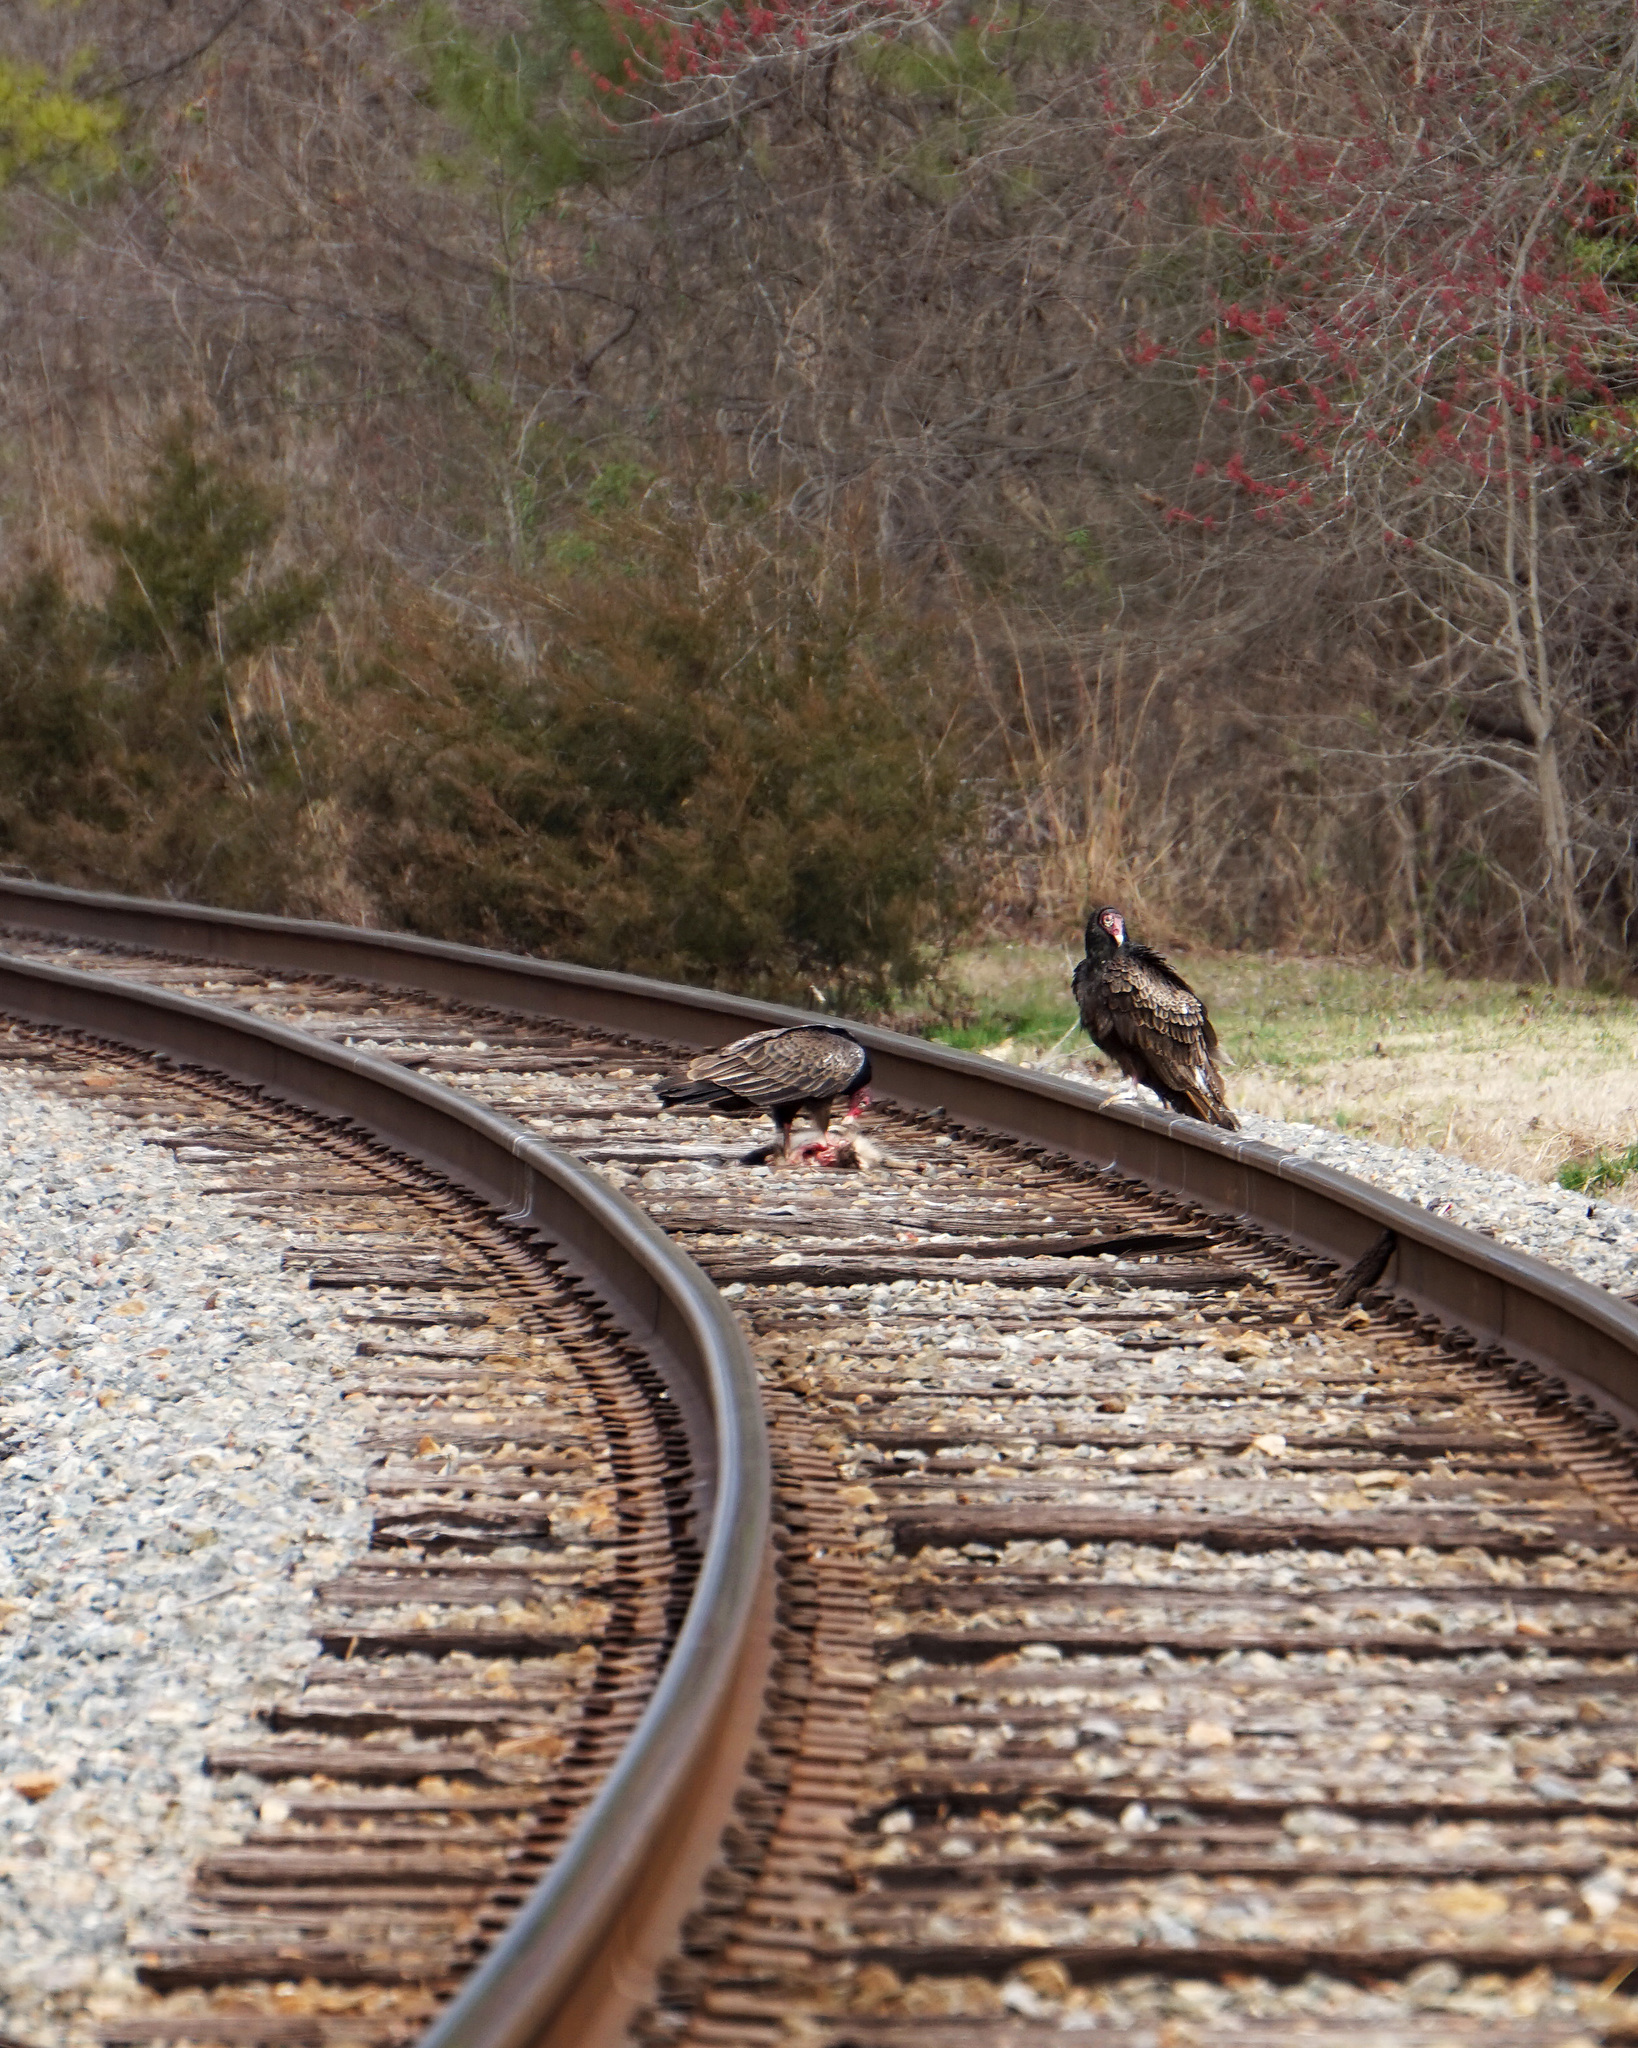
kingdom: Animalia
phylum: Chordata
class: Aves
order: Accipitriformes
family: Cathartidae
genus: Cathartes
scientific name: Cathartes aura
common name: Turkey vulture
